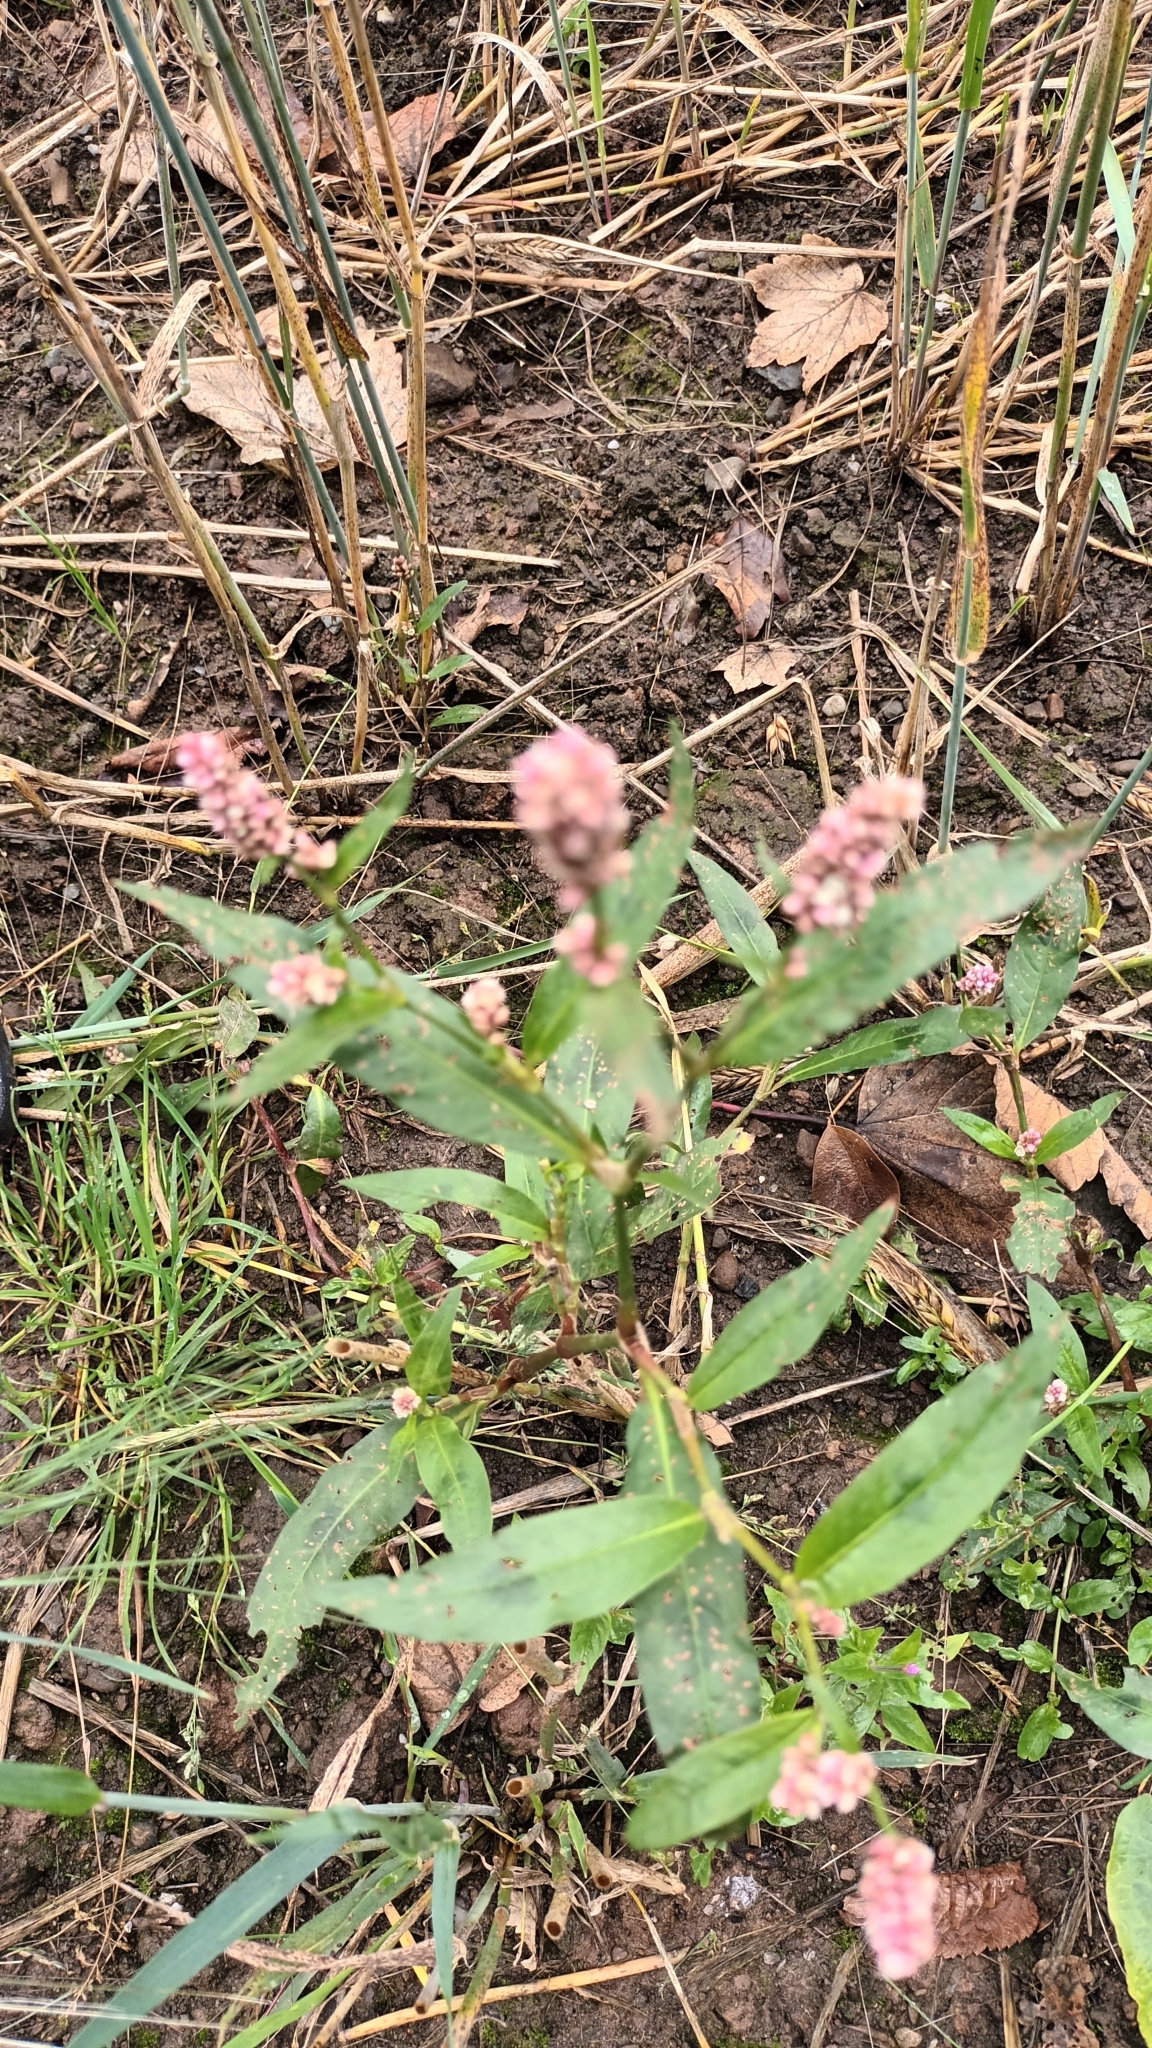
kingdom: Plantae
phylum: Tracheophyta
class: Magnoliopsida
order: Caryophyllales
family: Polygonaceae
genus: Persicaria
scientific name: Persicaria maculosa
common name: Redshank
